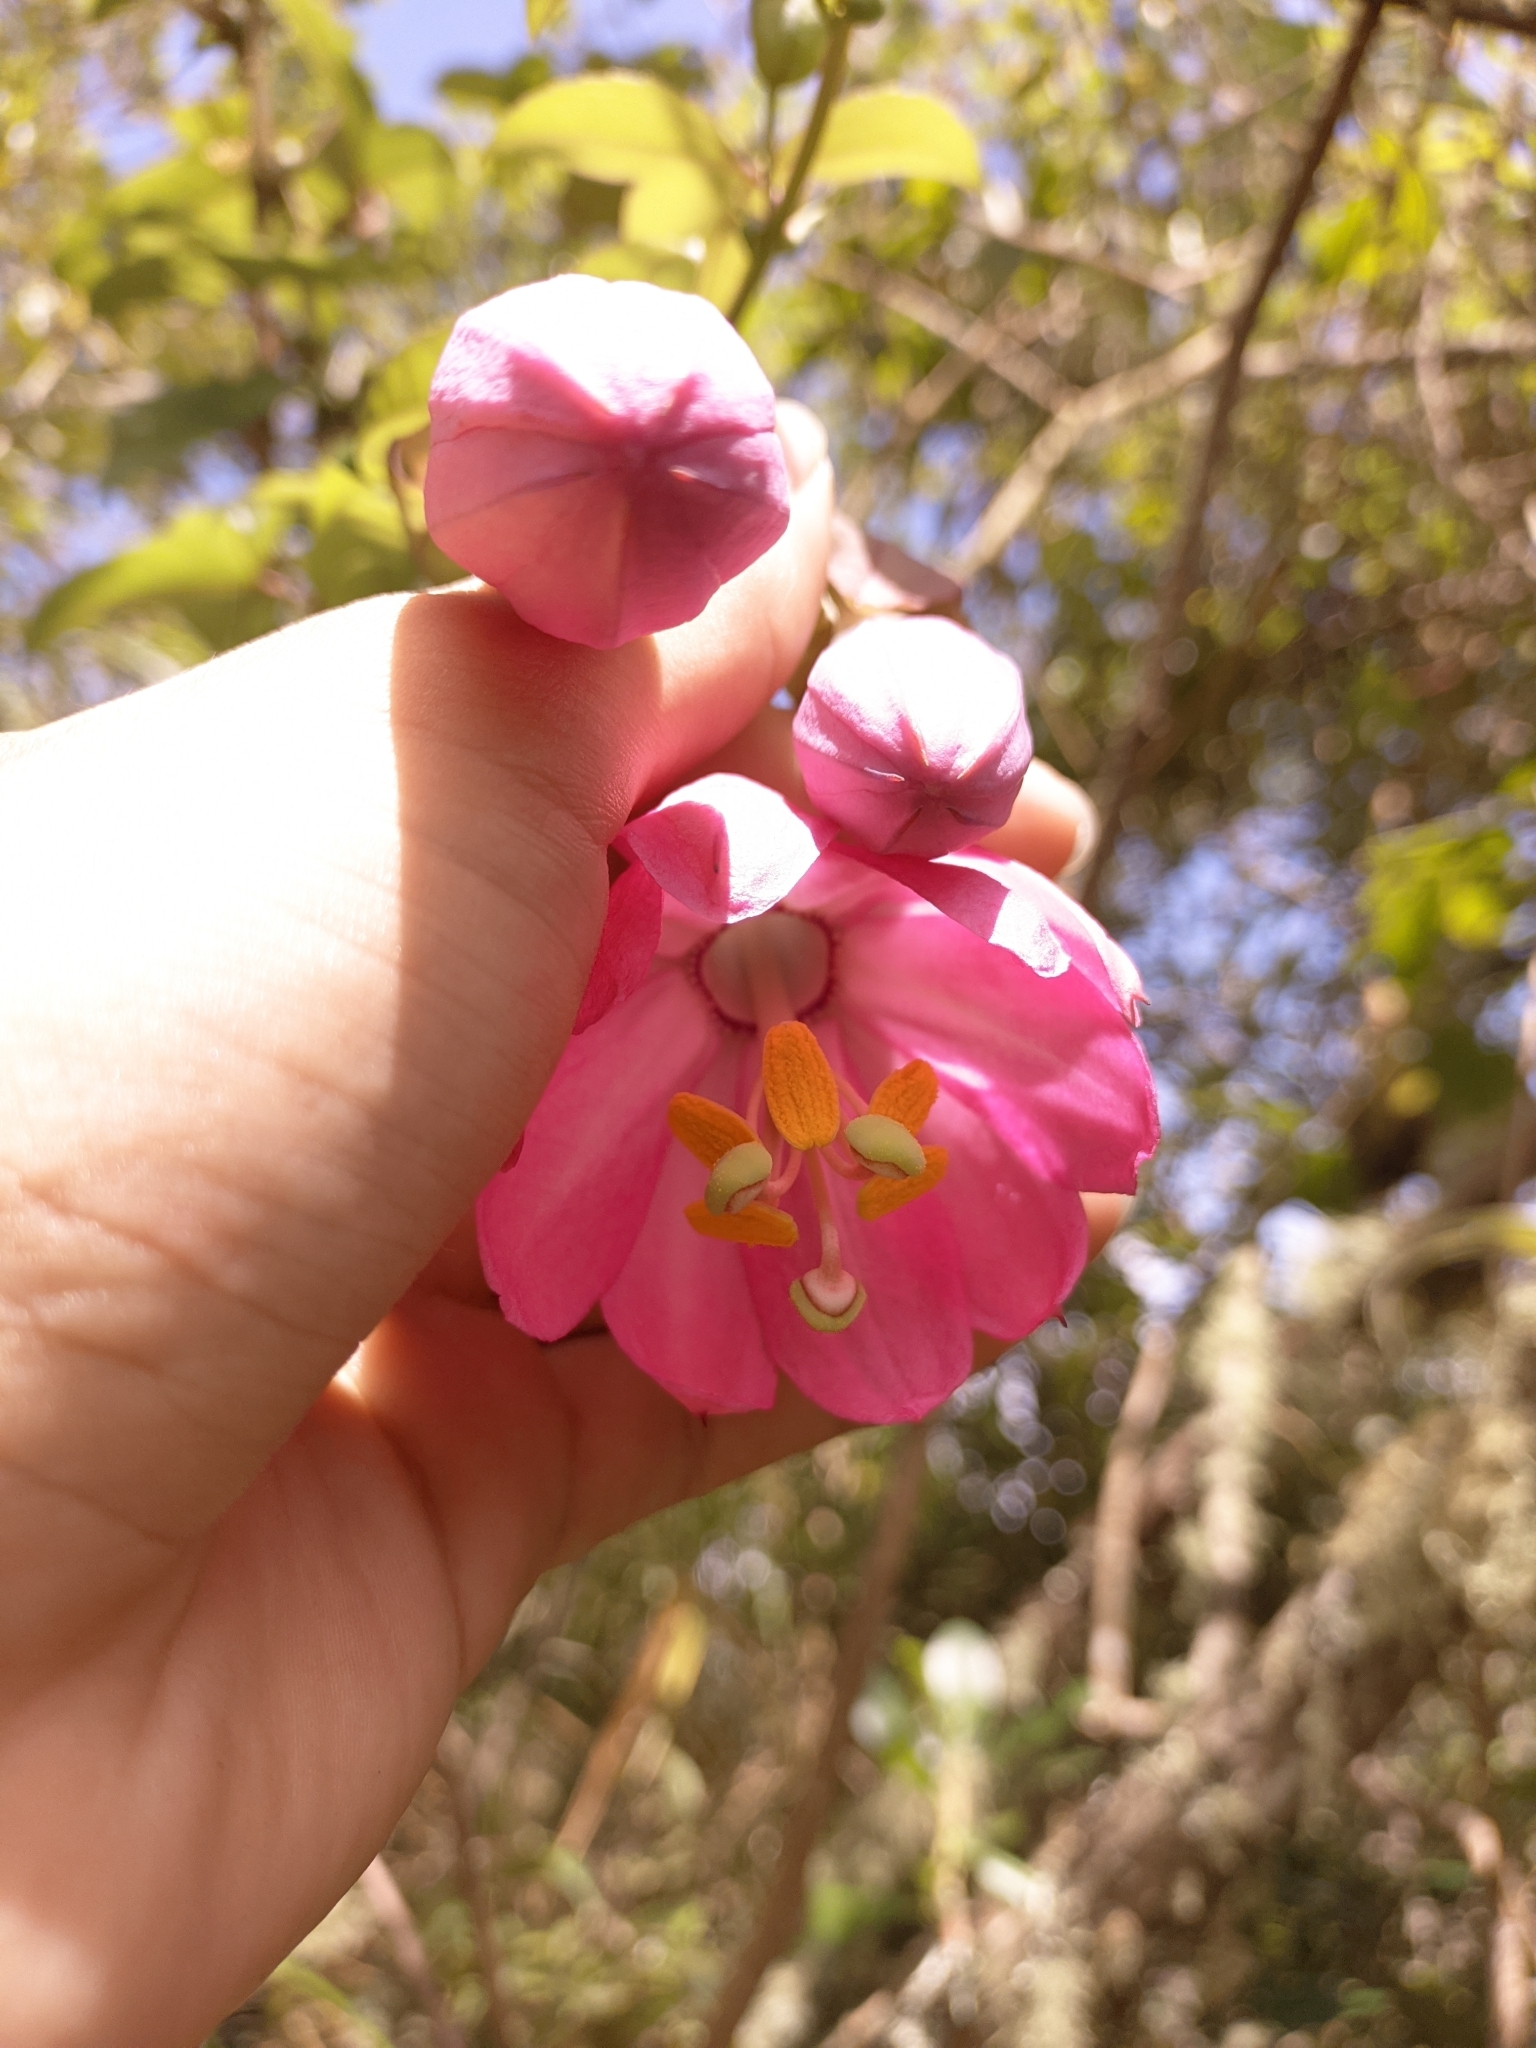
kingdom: Plantae
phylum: Tracheophyta
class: Magnoliopsida
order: Malpighiales
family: Passifloraceae
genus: Passiflora
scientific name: Passiflora cumbalensis
